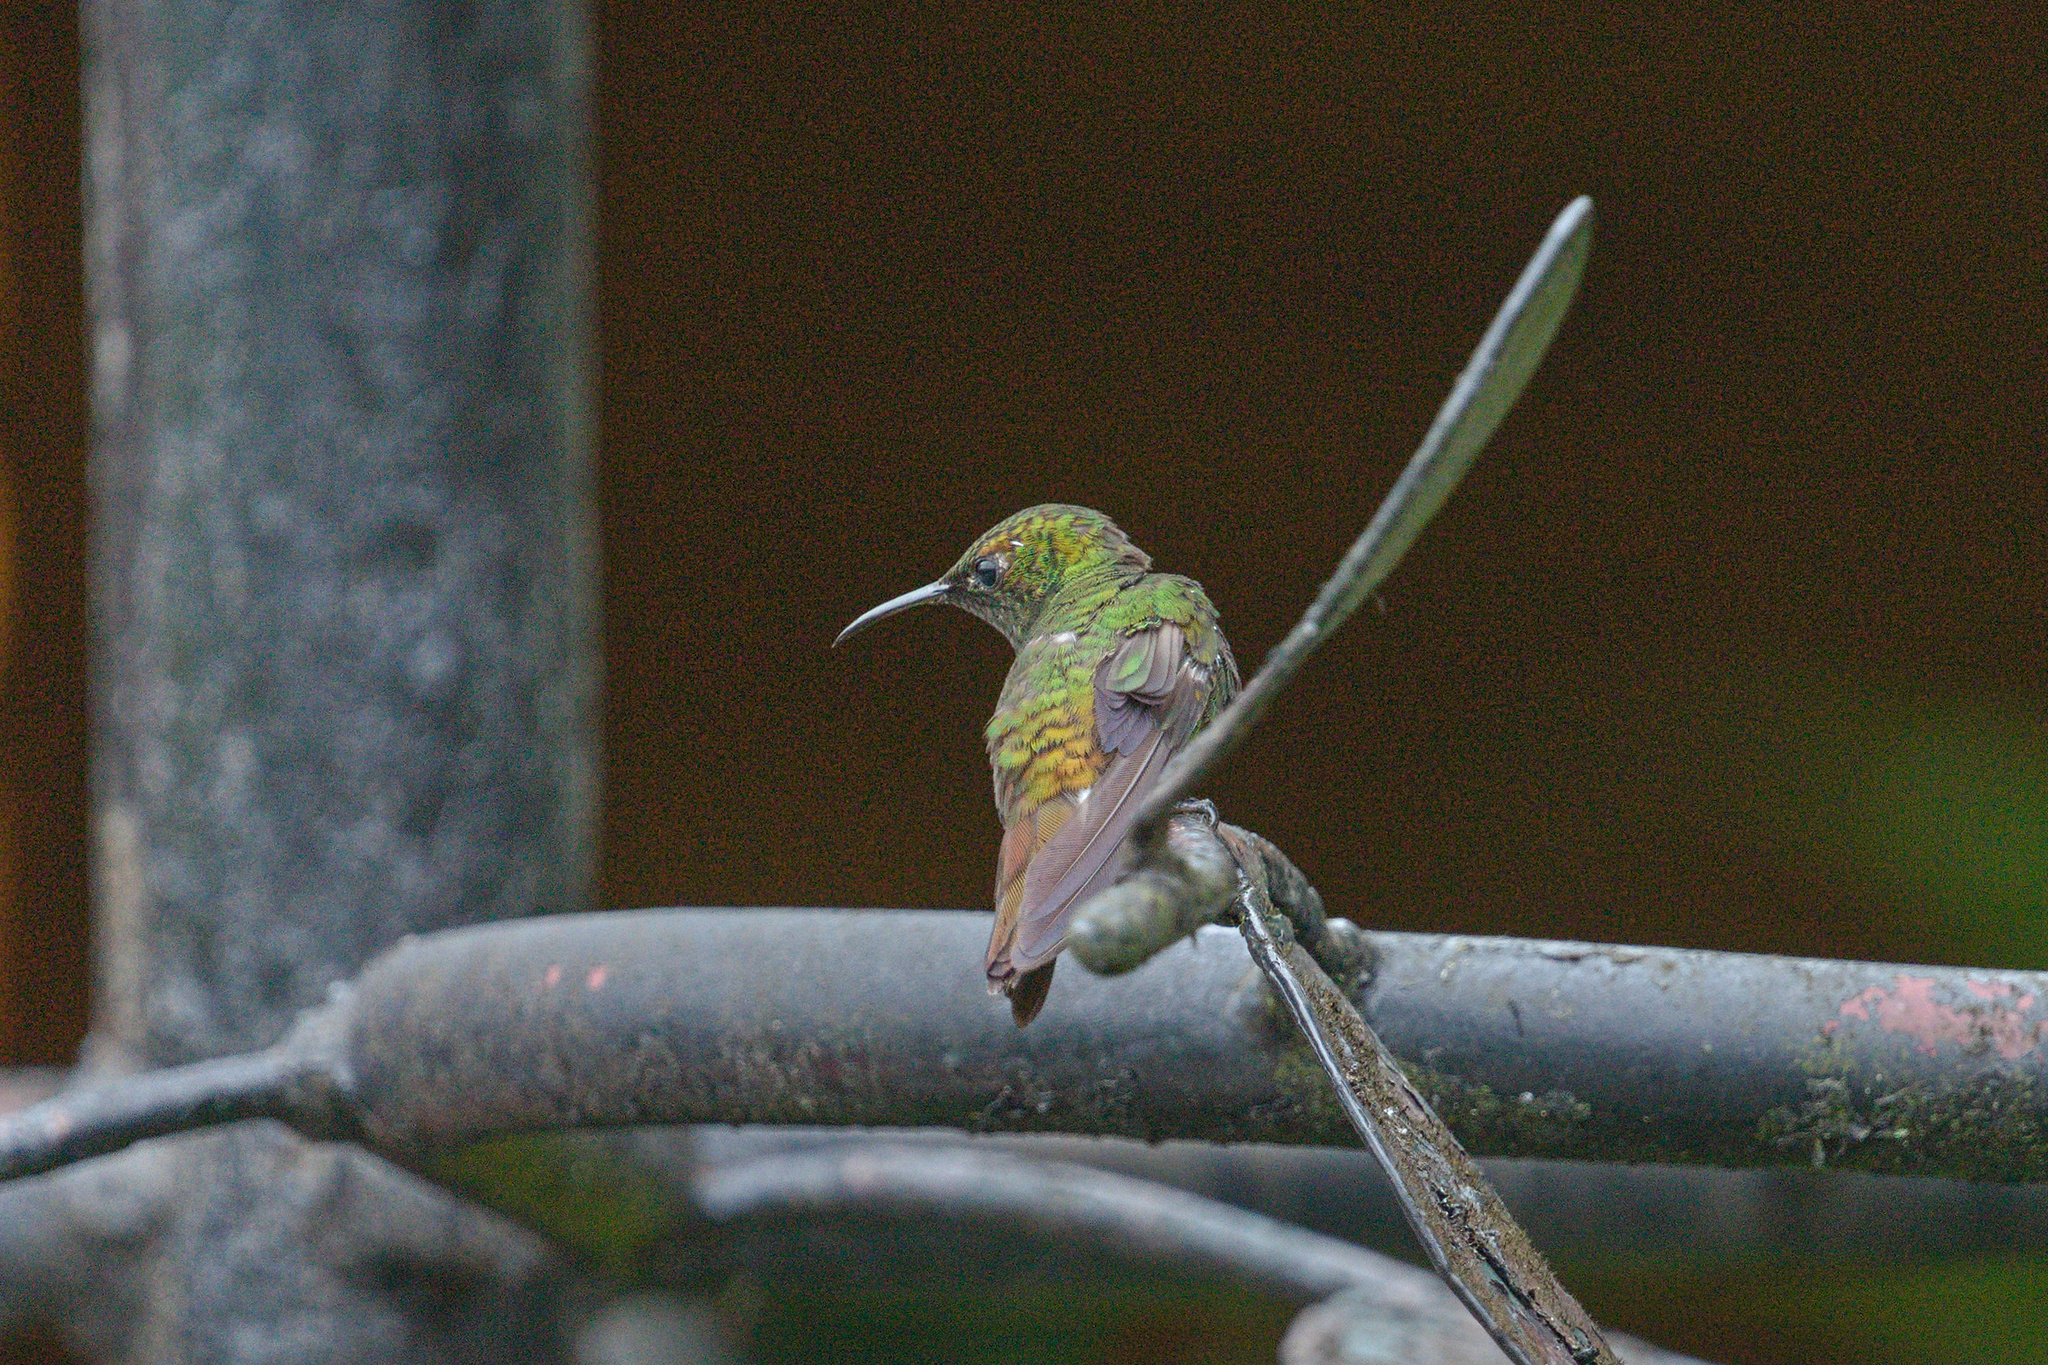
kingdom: Animalia
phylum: Chordata
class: Aves
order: Apodiformes
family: Trochilidae
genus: Microchera
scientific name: Microchera cupreiceps
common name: Coppery-headed emerald
